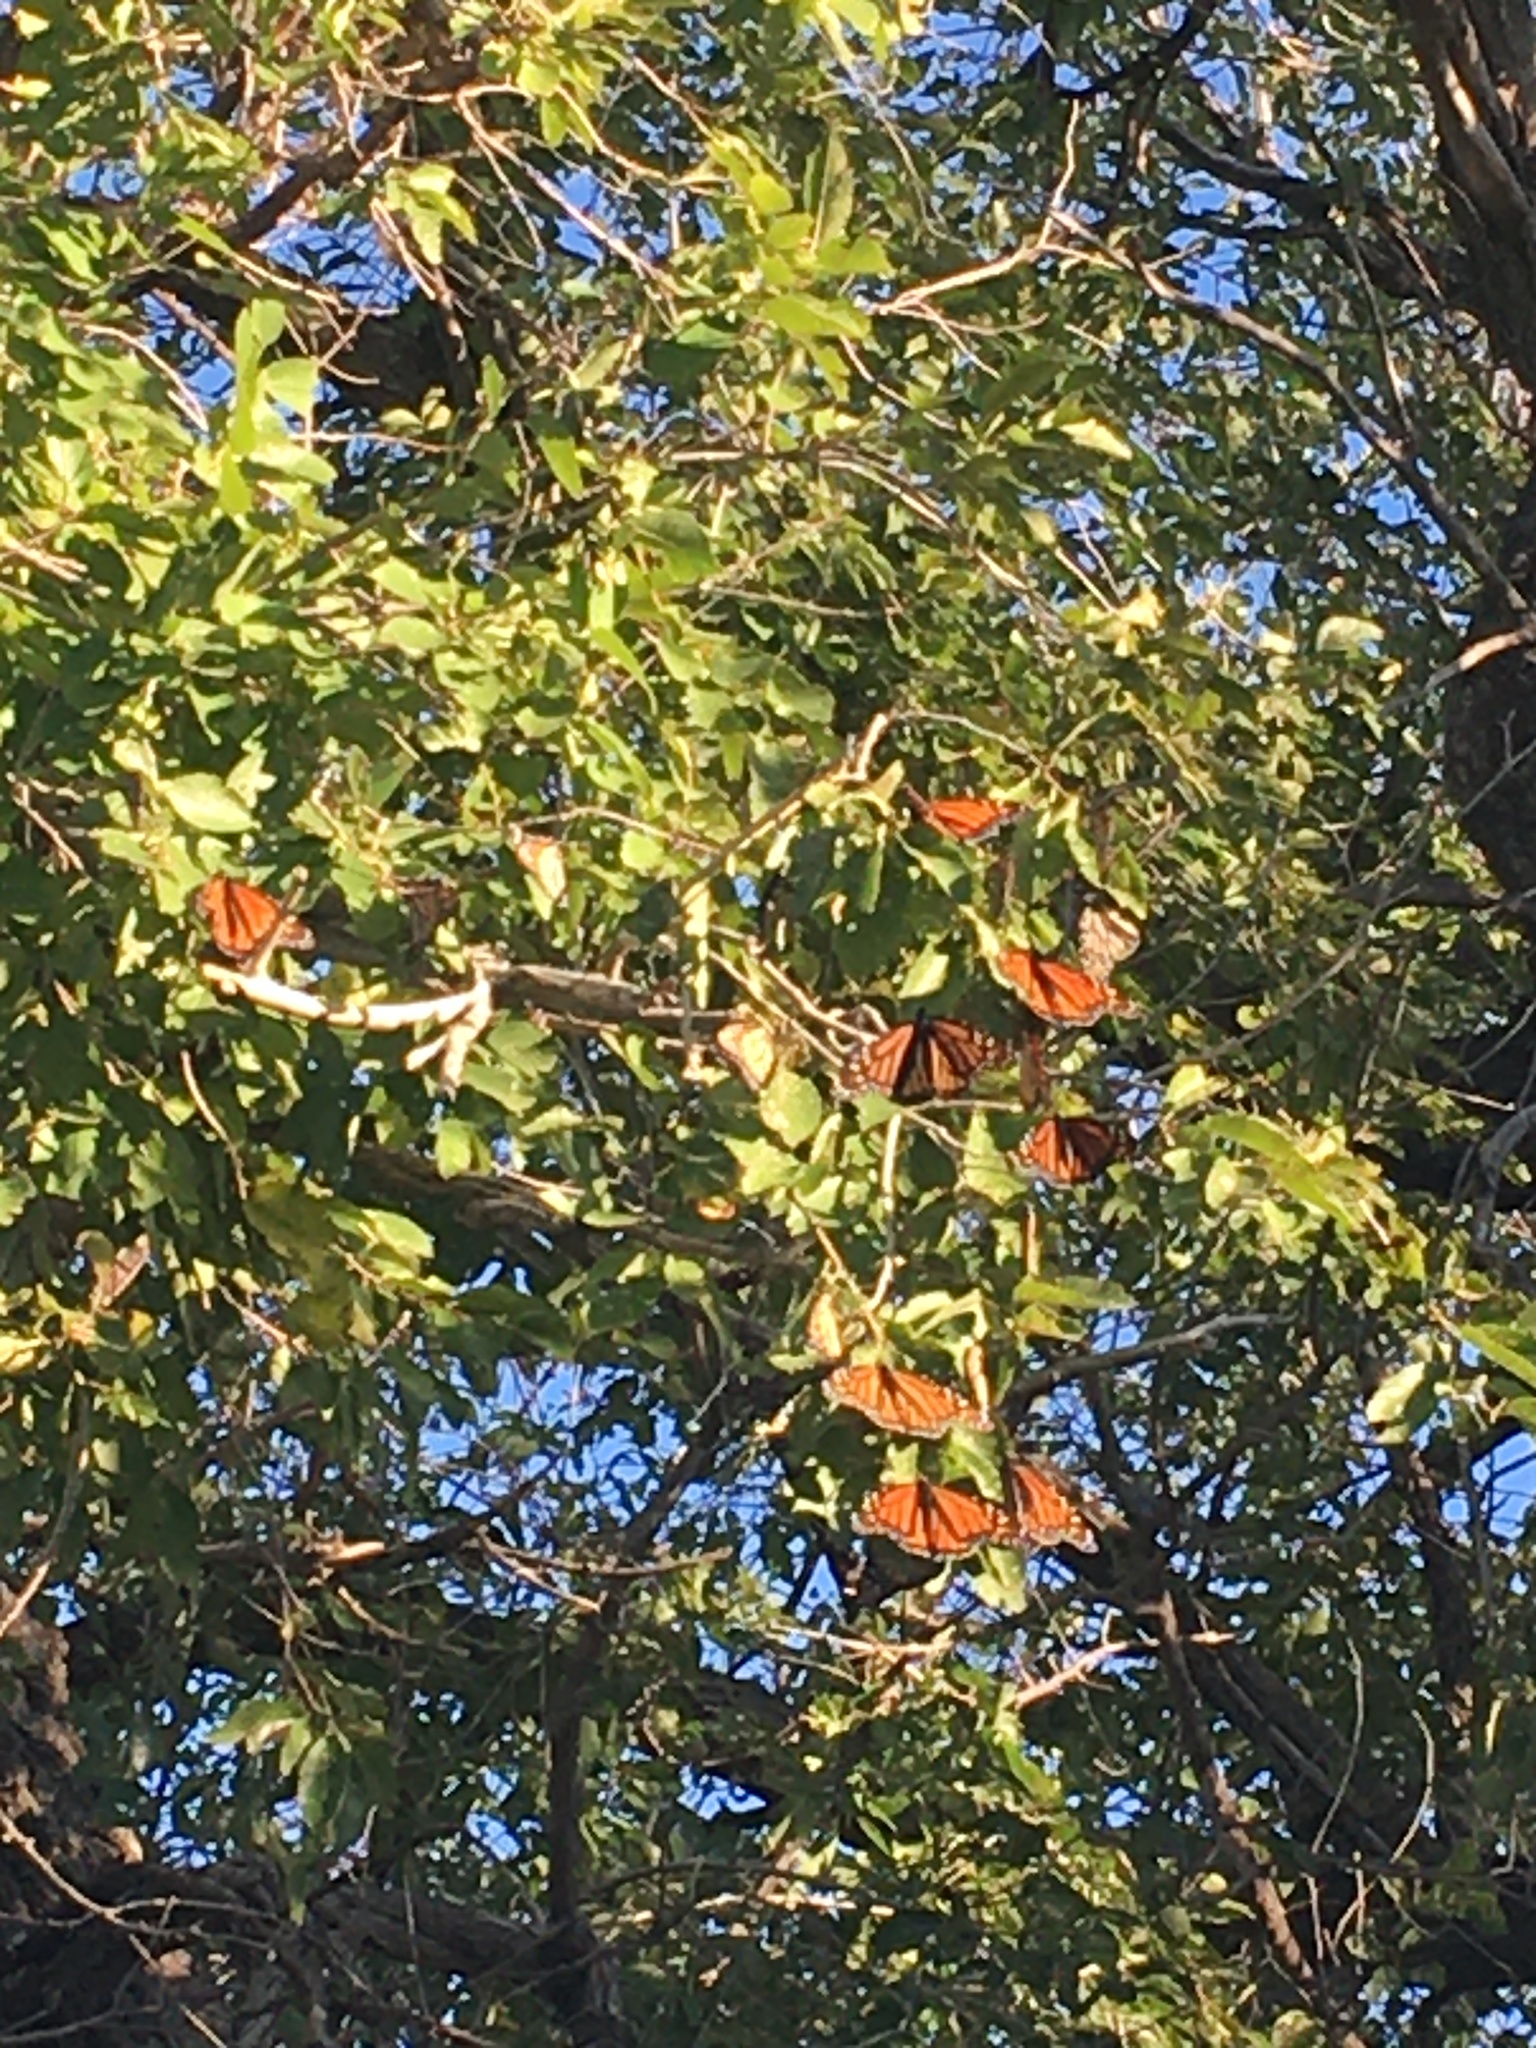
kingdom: Animalia
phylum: Arthropoda
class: Insecta
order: Lepidoptera
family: Nymphalidae
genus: Danaus
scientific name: Danaus plexippus
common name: Monarch
